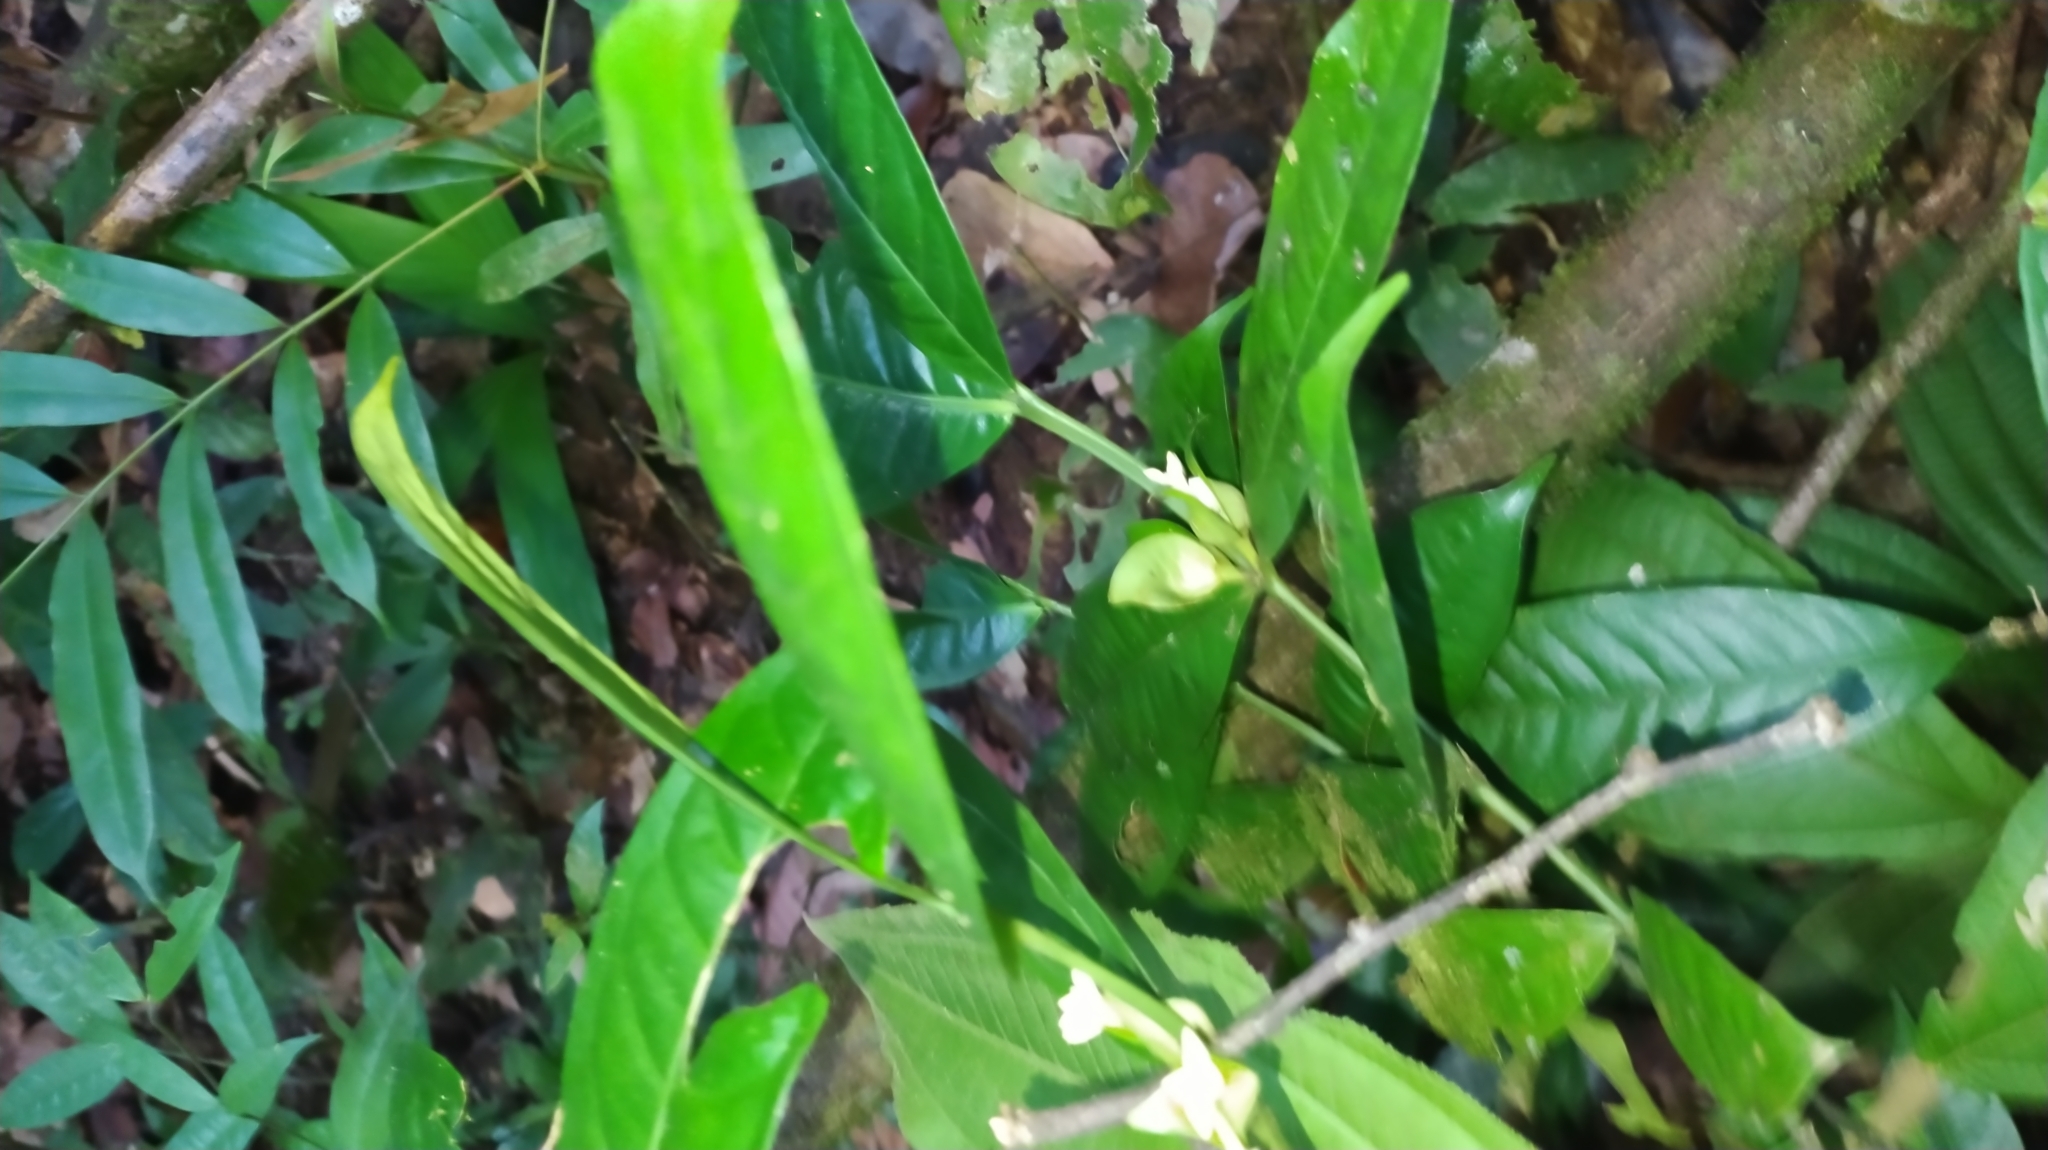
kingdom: Plantae
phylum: Tracheophyta
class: Magnoliopsida
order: Gentianales
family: Rubiaceae
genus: Faramea
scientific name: Faramea guianensis
